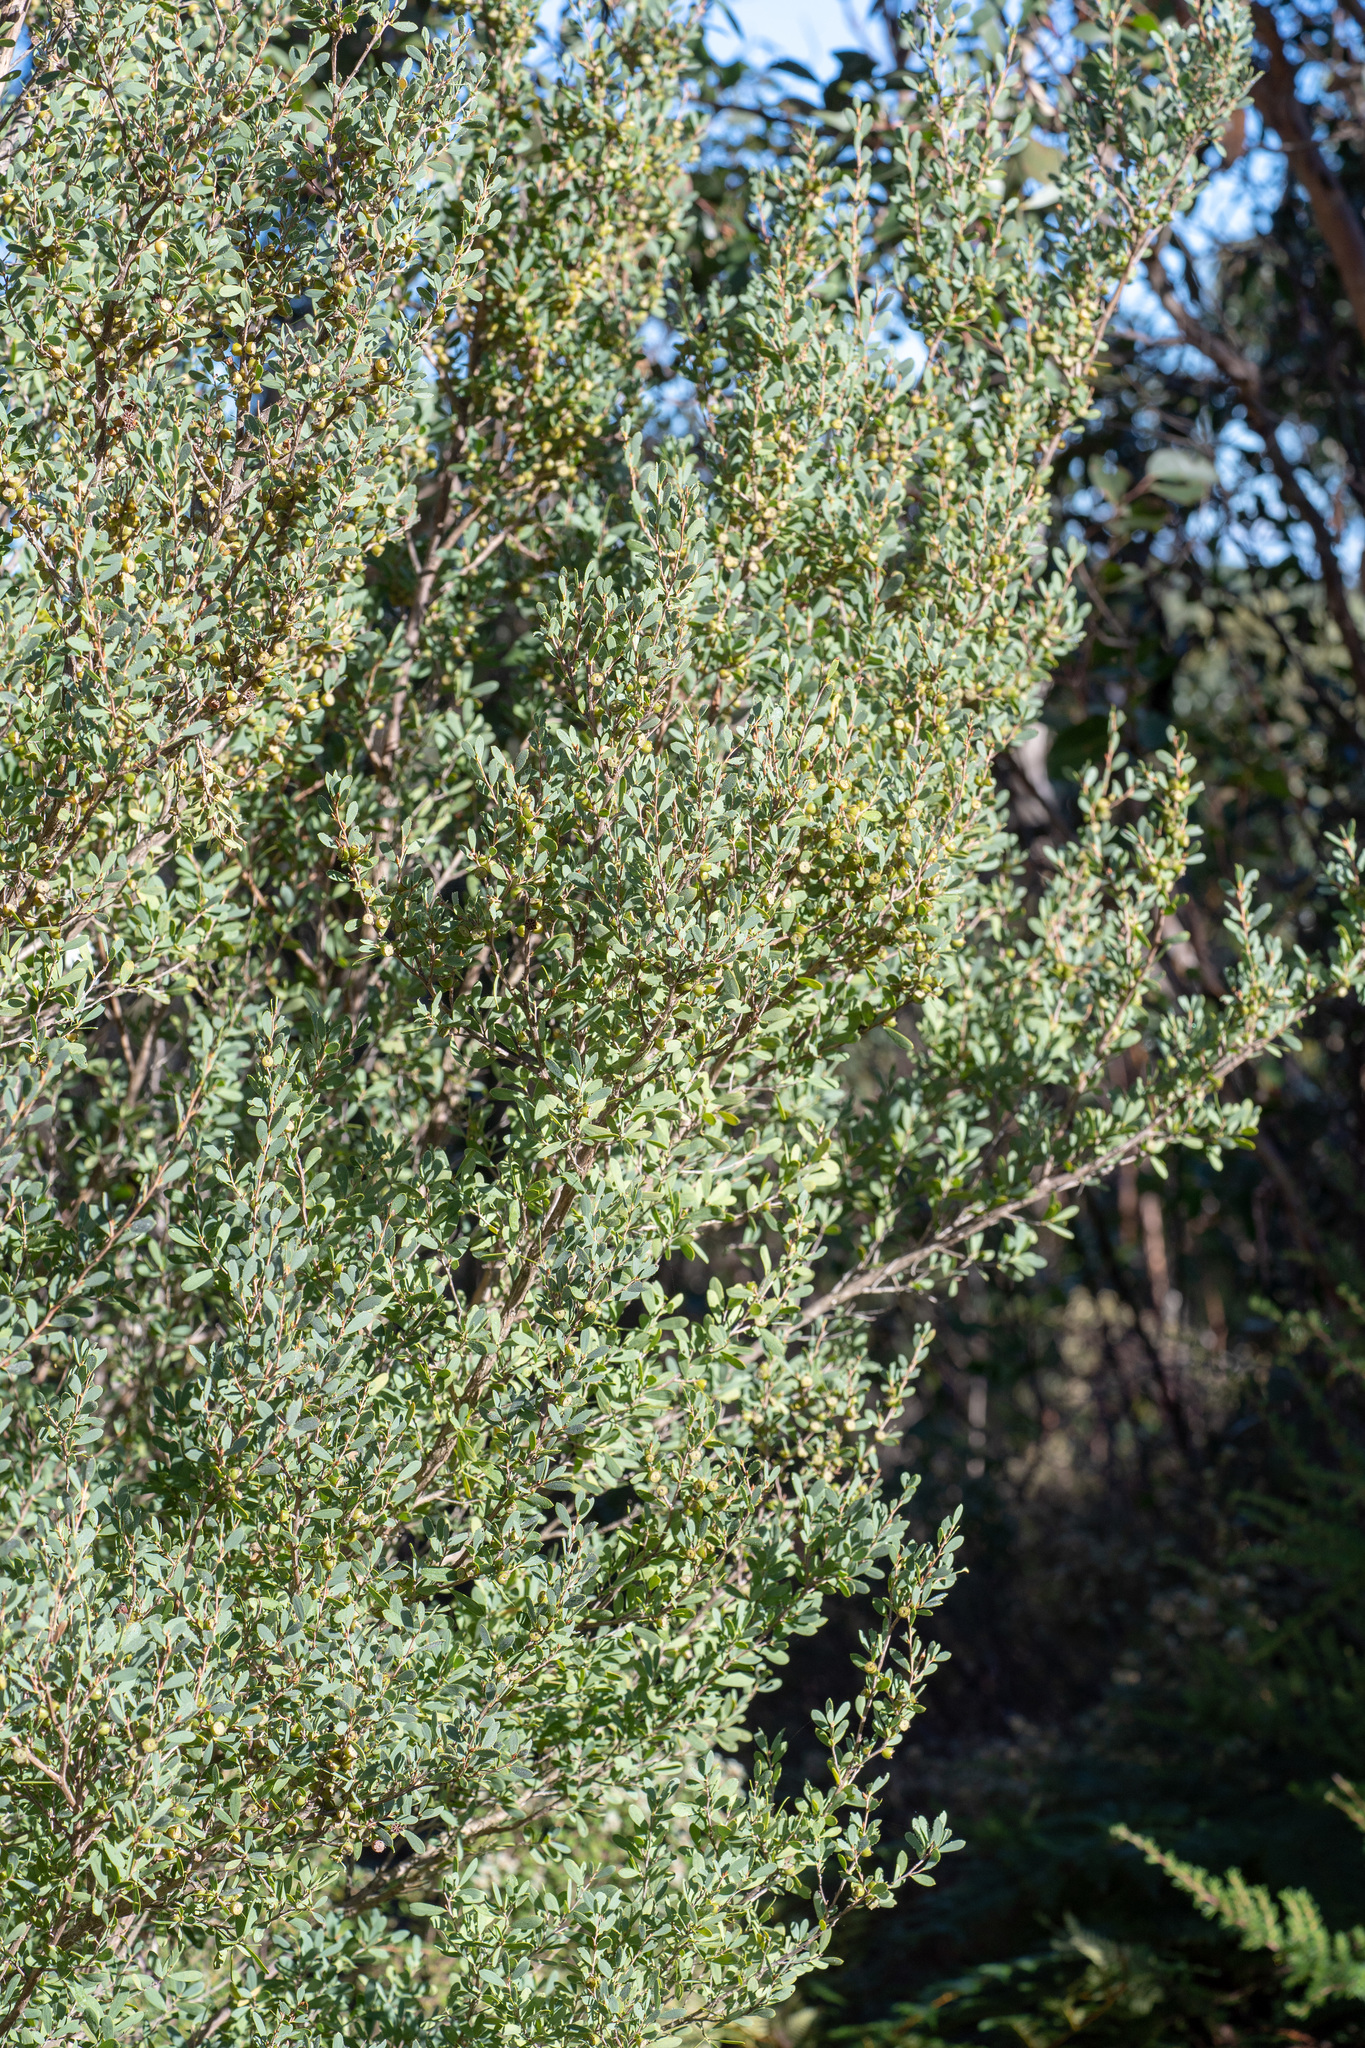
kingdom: Plantae
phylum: Tracheophyta
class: Magnoliopsida
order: Myrtales
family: Myrtaceae
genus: Leptospermum
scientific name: Leptospermum laevigatum
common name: Australian teatree
